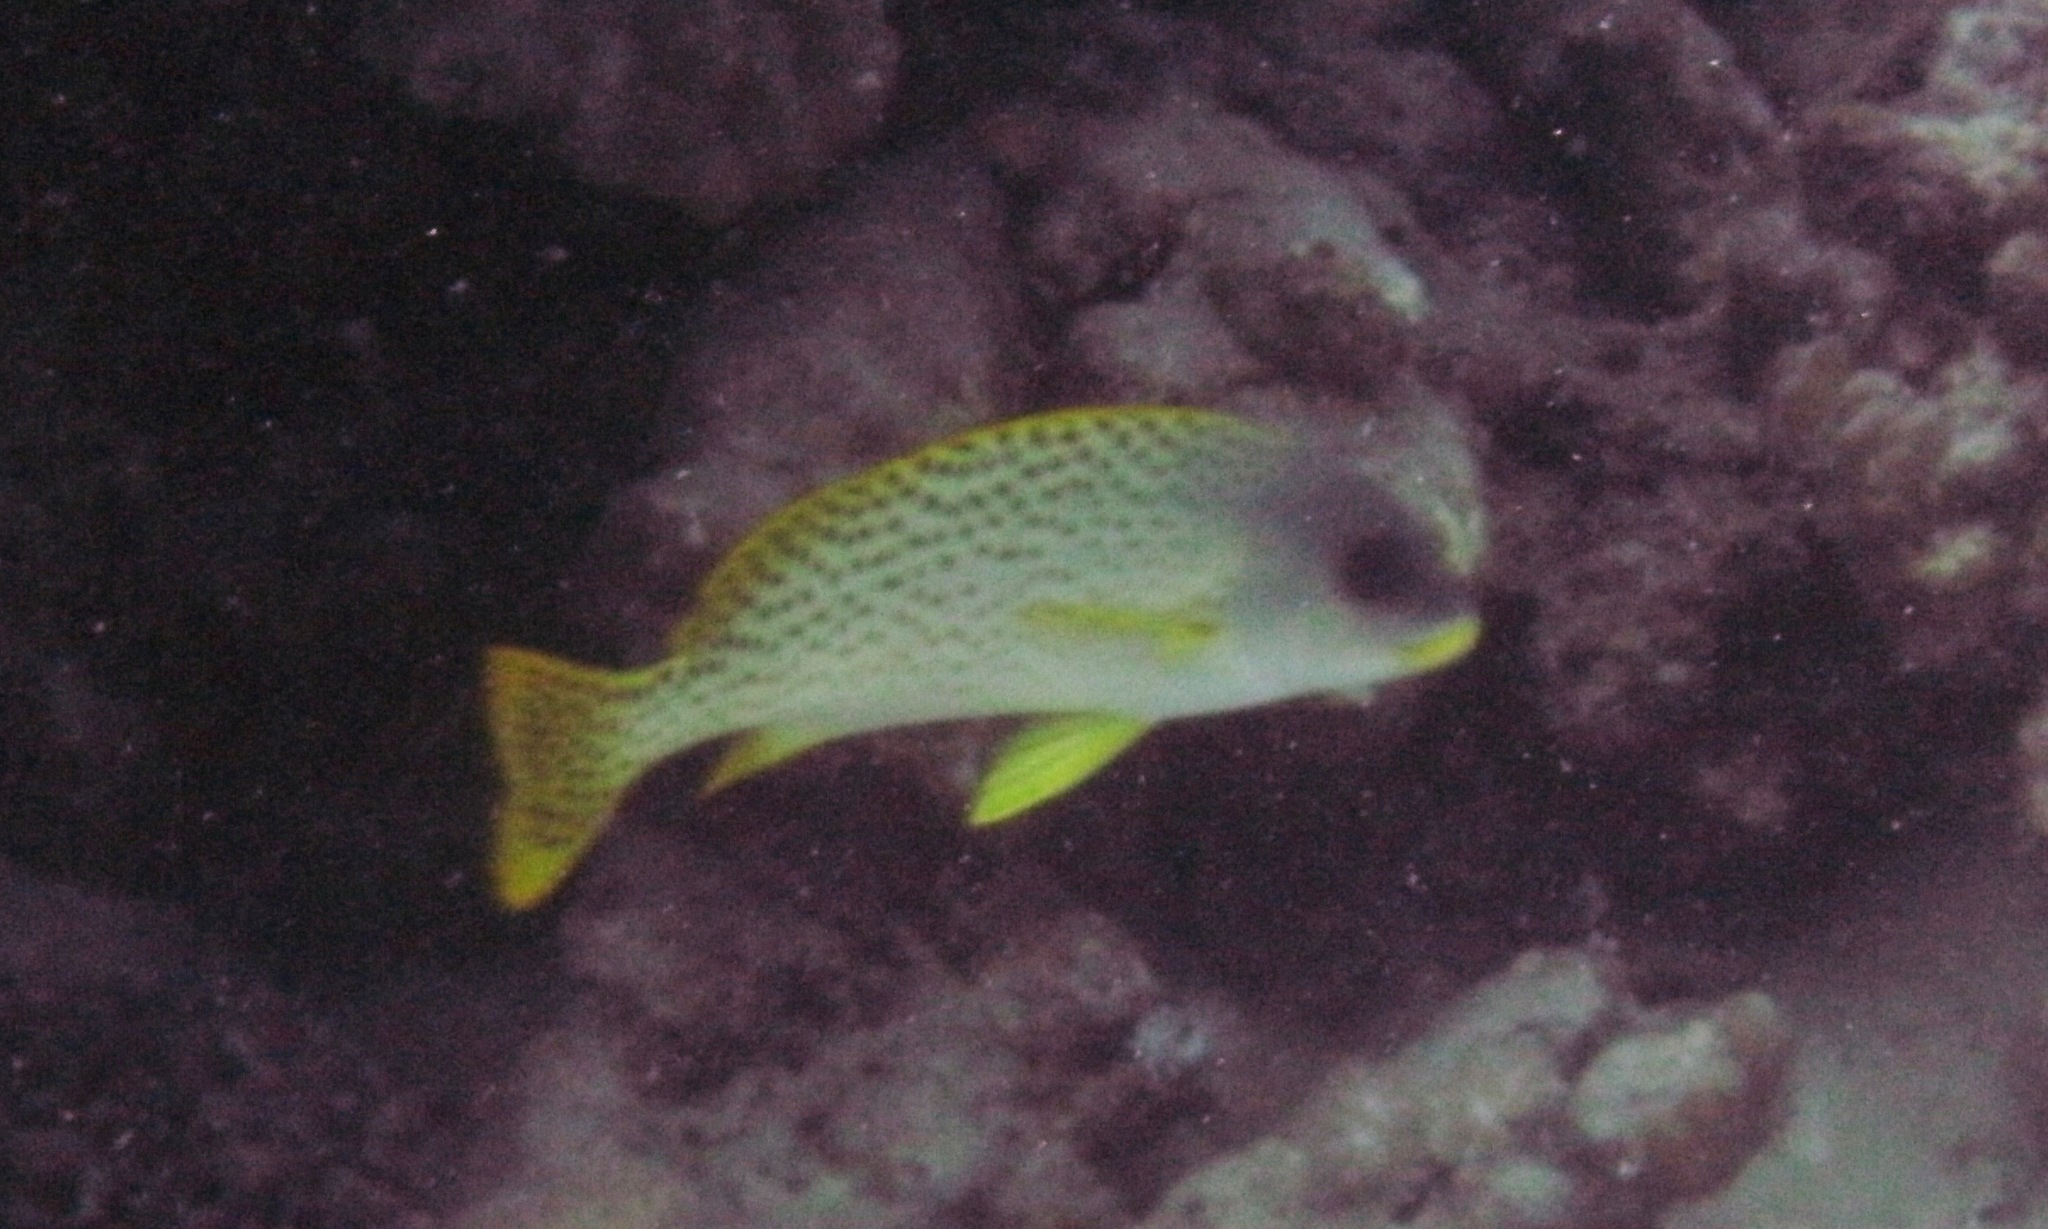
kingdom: Animalia
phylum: Chordata
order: Perciformes
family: Haemulidae
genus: Plectorhinchus
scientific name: Plectorhinchus gaterinus
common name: Blackspotted rubberlip
